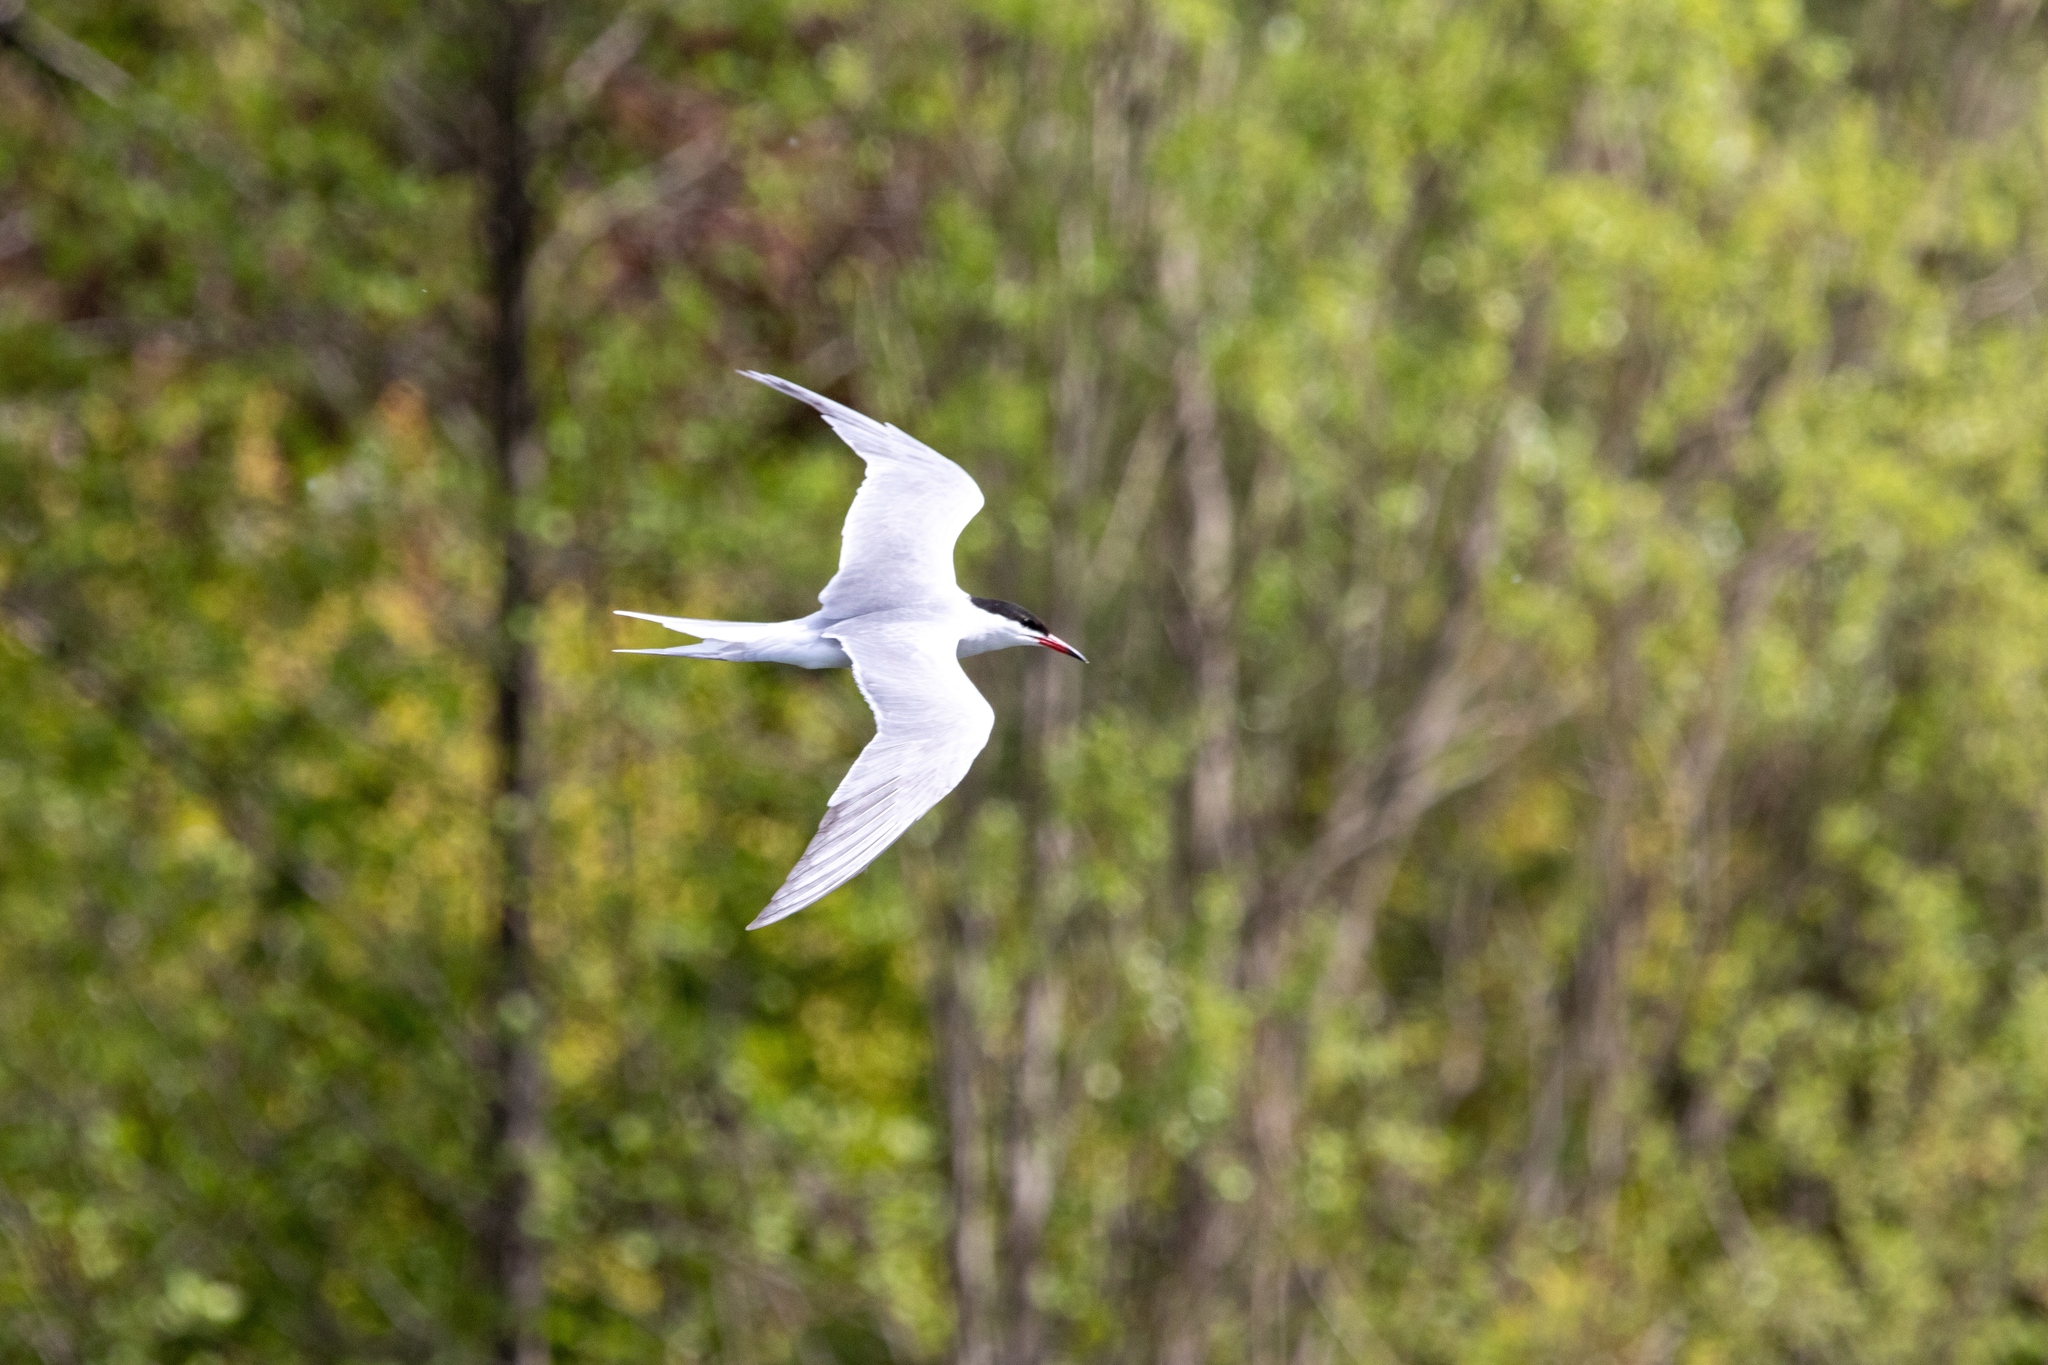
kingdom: Animalia
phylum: Chordata
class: Aves
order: Charadriiformes
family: Laridae
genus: Sterna
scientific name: Sterna hirundo
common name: Common tern
